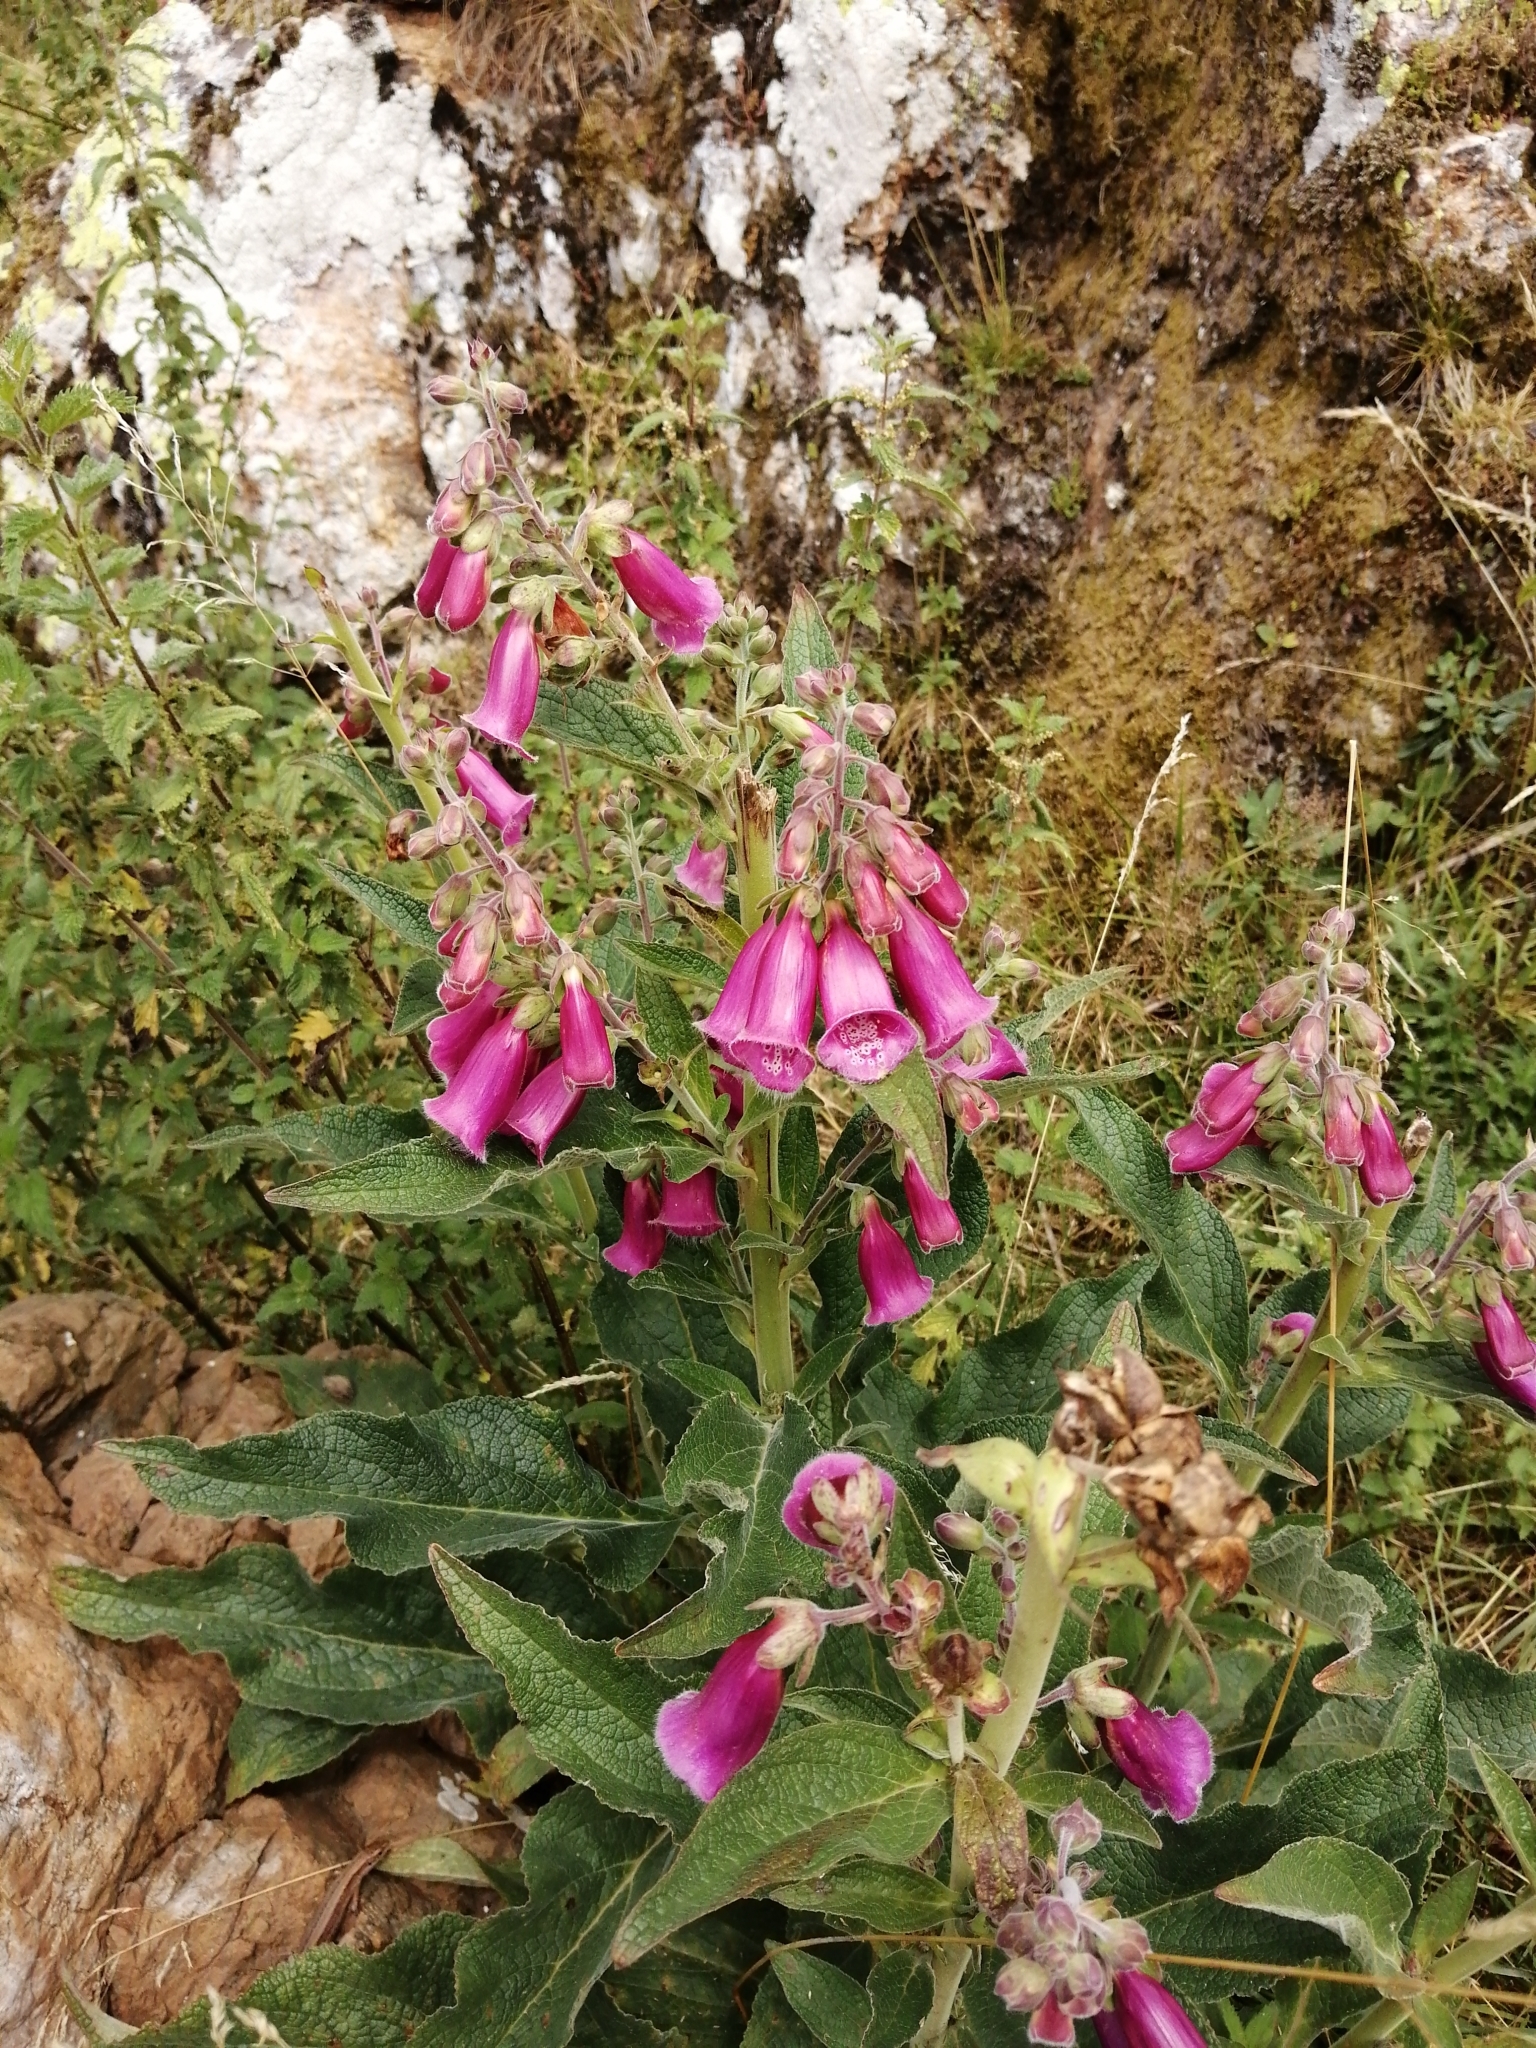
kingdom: Plantae
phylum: Tracheophyta
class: Magnoliopsida
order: Lamiales
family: Plantaginaceae
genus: Digitalis
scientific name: Digitalis purpurea
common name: Foxglove
